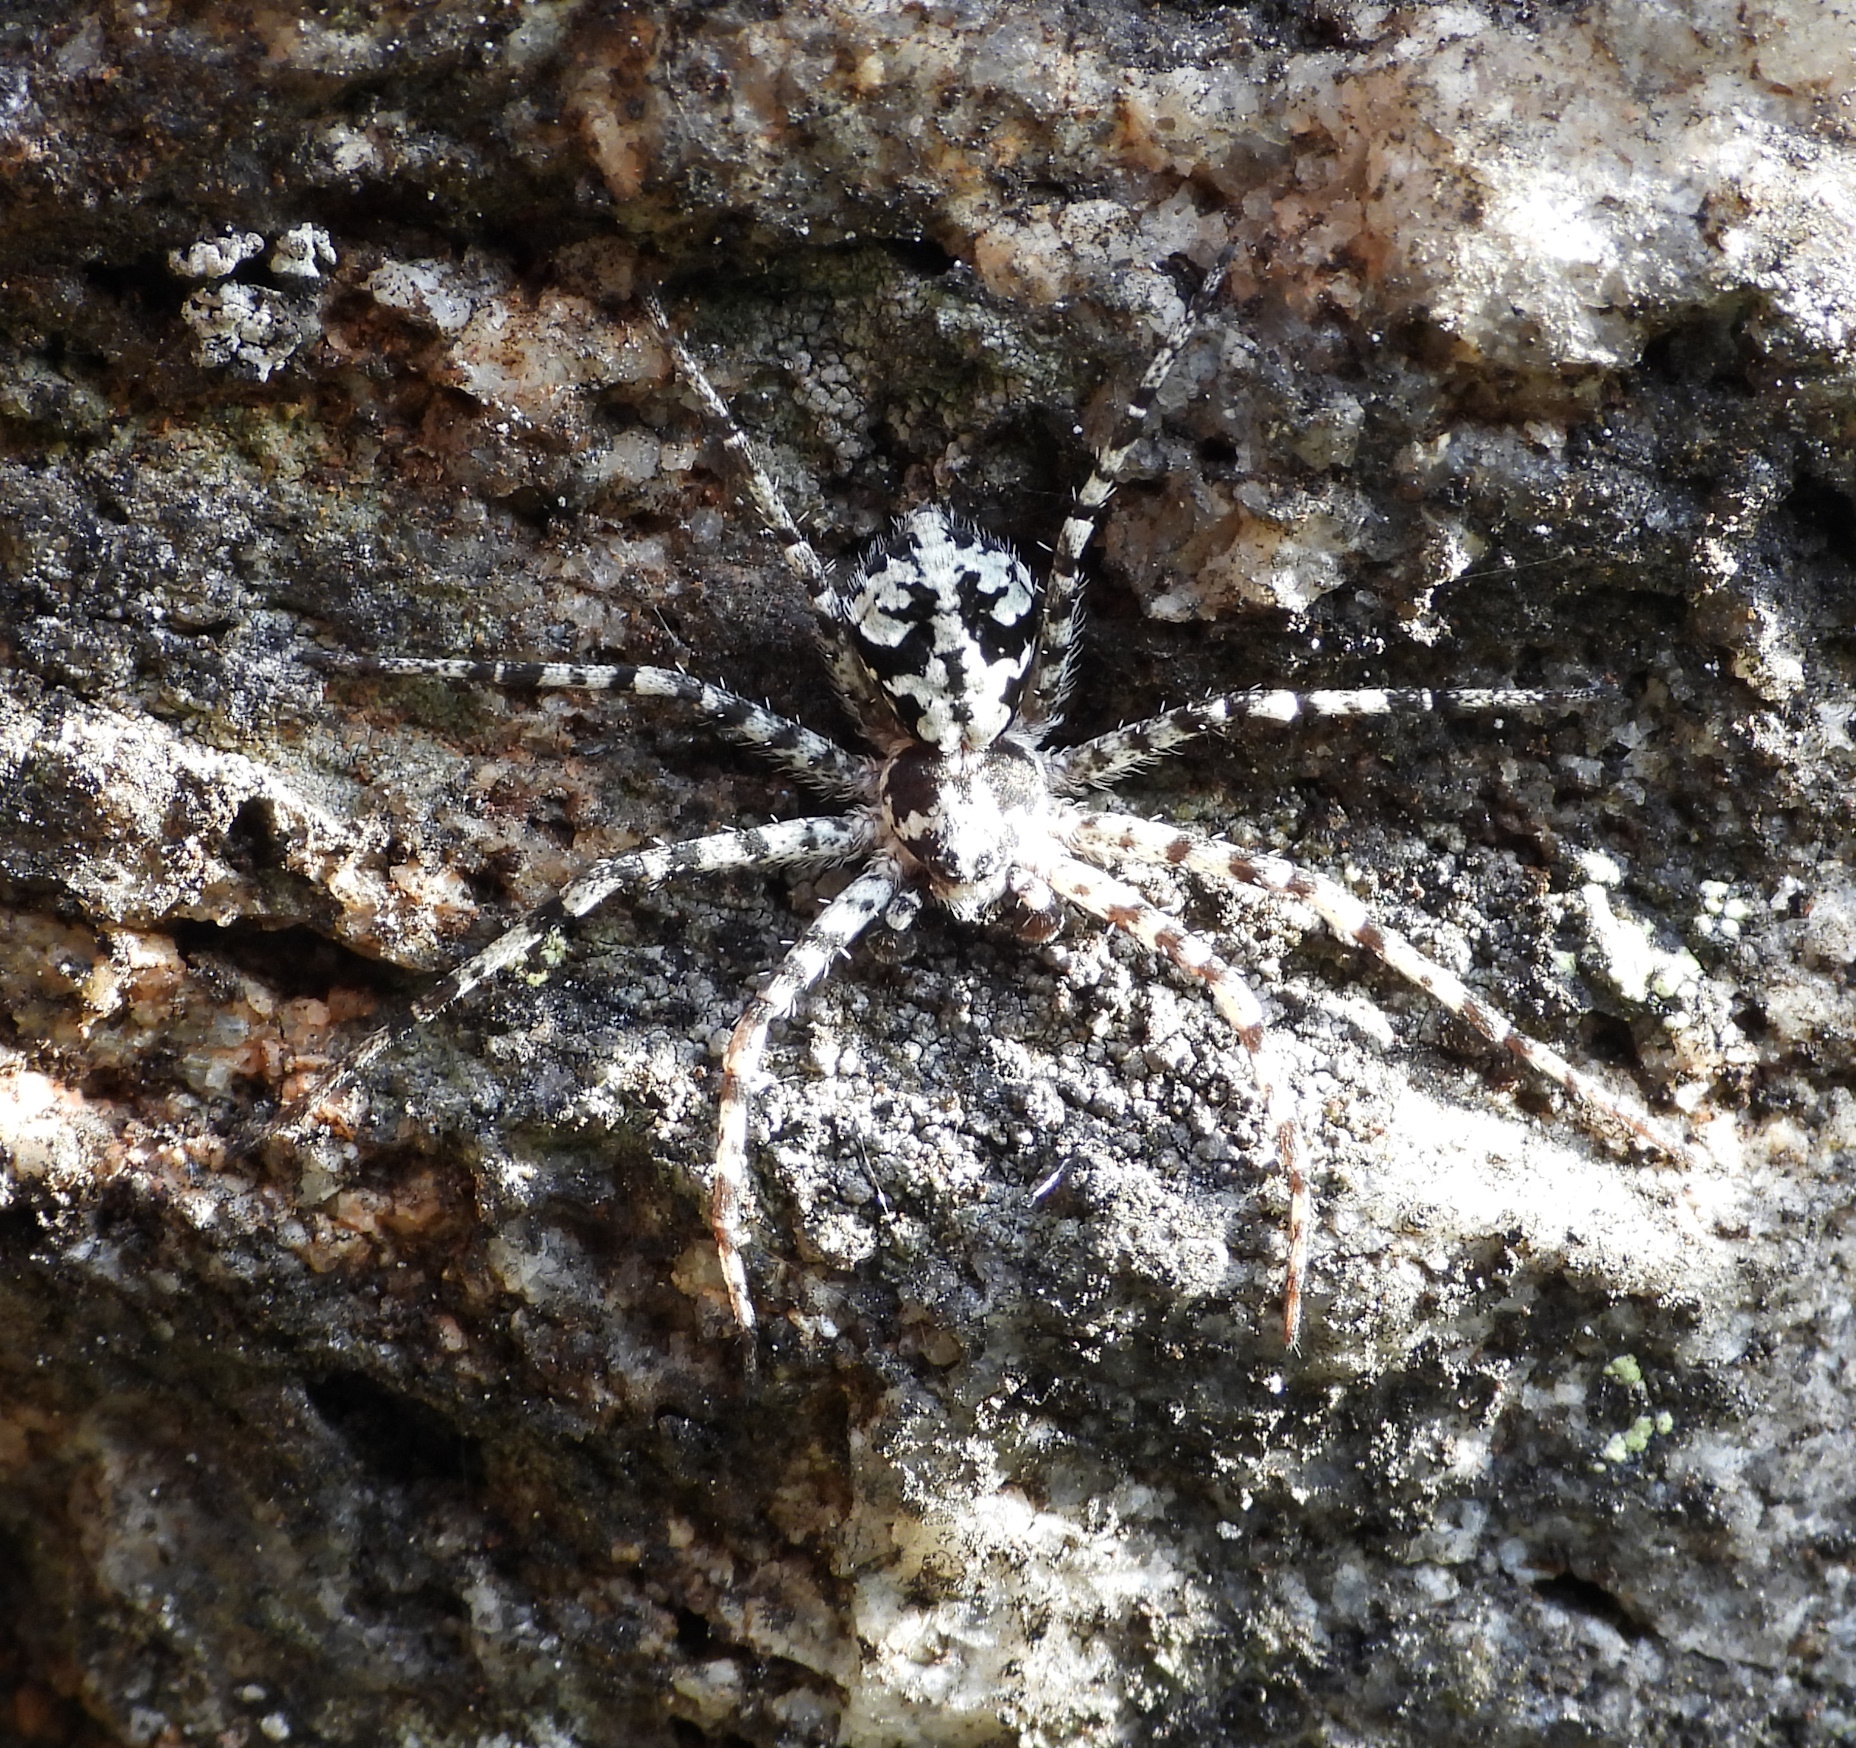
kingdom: Animalia
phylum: Arthropoda
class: Arachnida
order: Araneae
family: Philodromidae
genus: Philodromus
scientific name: Philodromus margaritatus
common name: Lichen running-spider
